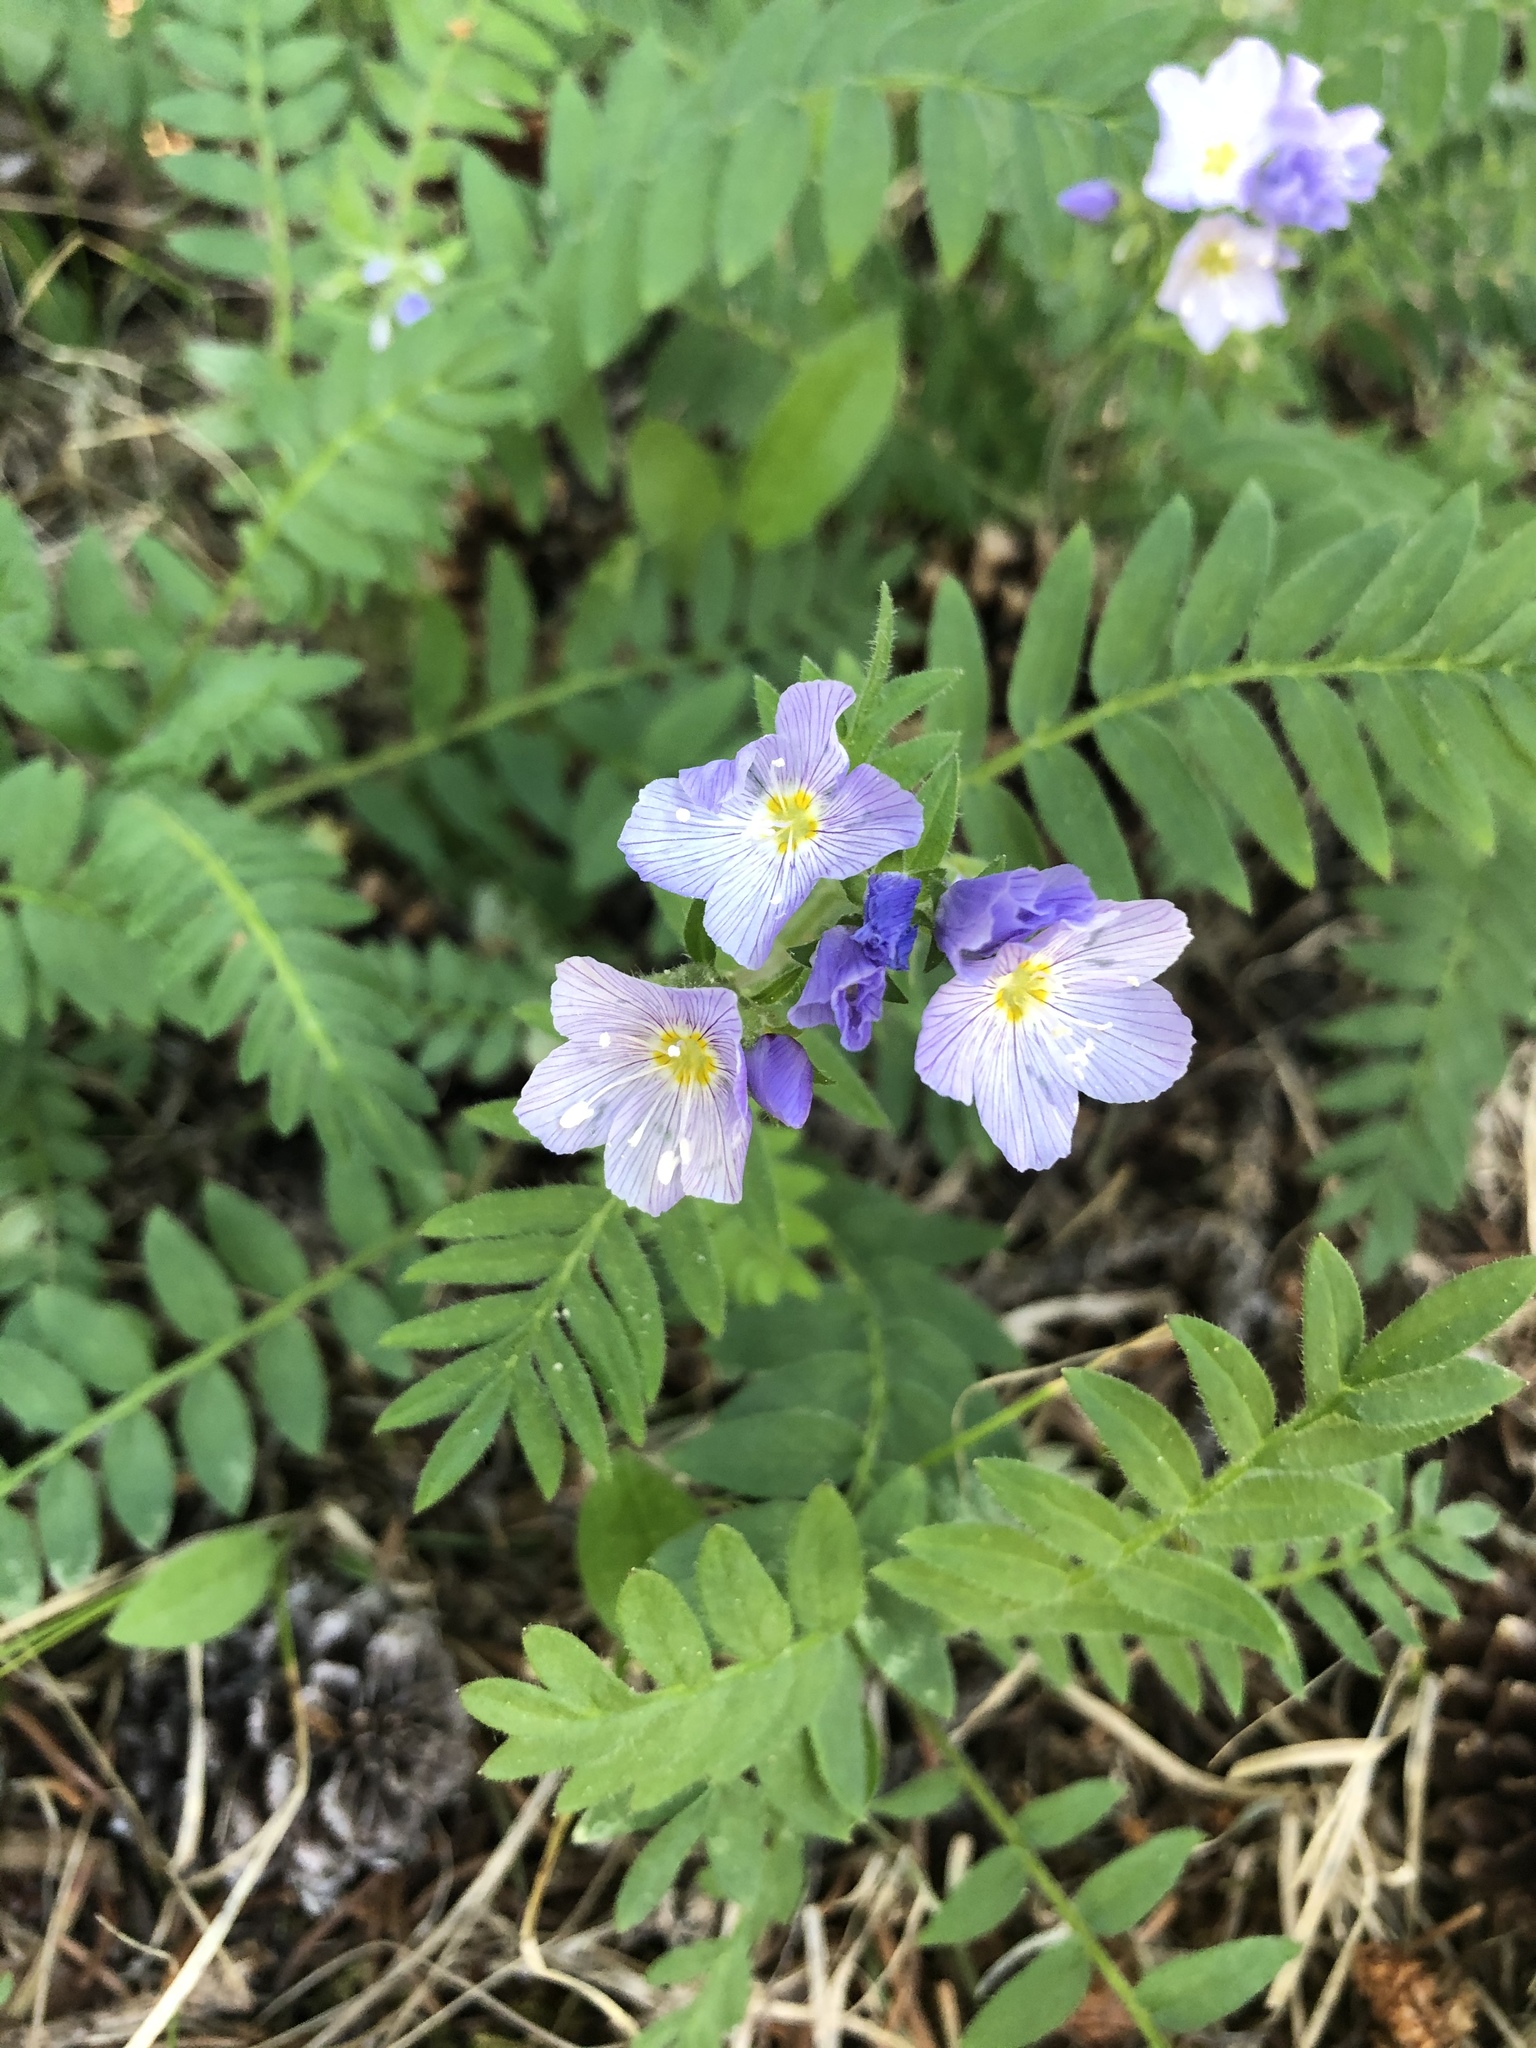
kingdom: Plantae
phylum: Tracheophyta
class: Magnoliopsida
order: Ericales
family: Polemoniaceae
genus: Polemonium
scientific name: Polemonium pulcherrimum
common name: Short jacob's-ladder
